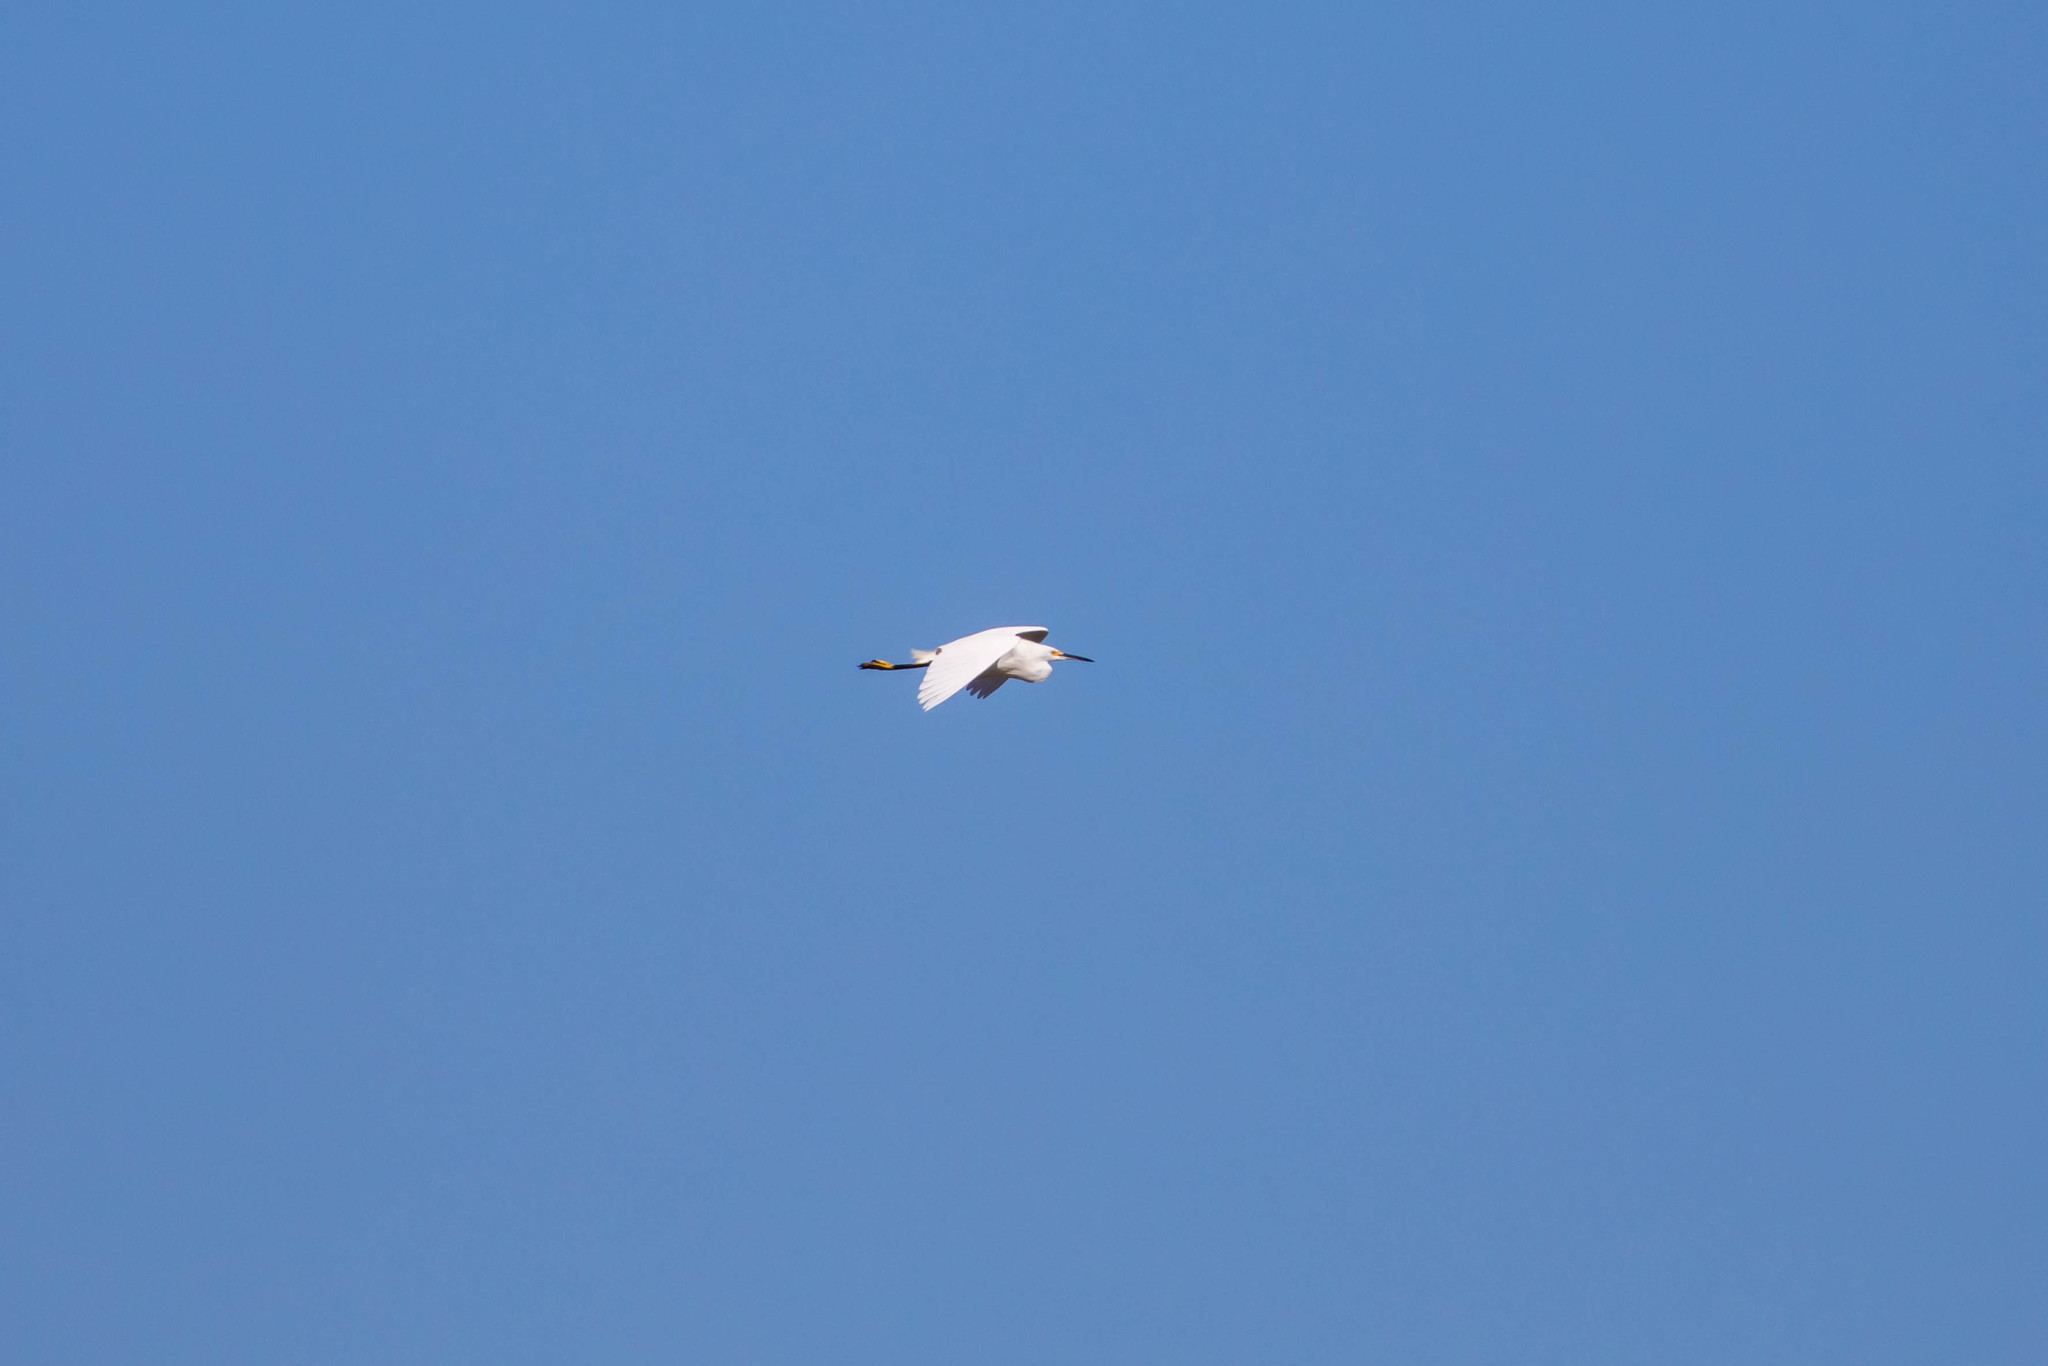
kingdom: Animalia
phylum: Chordata
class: Aves
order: Pelecaniformes
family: Ardeidae
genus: Egretta
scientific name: Egretta thula
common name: Snowy egret
